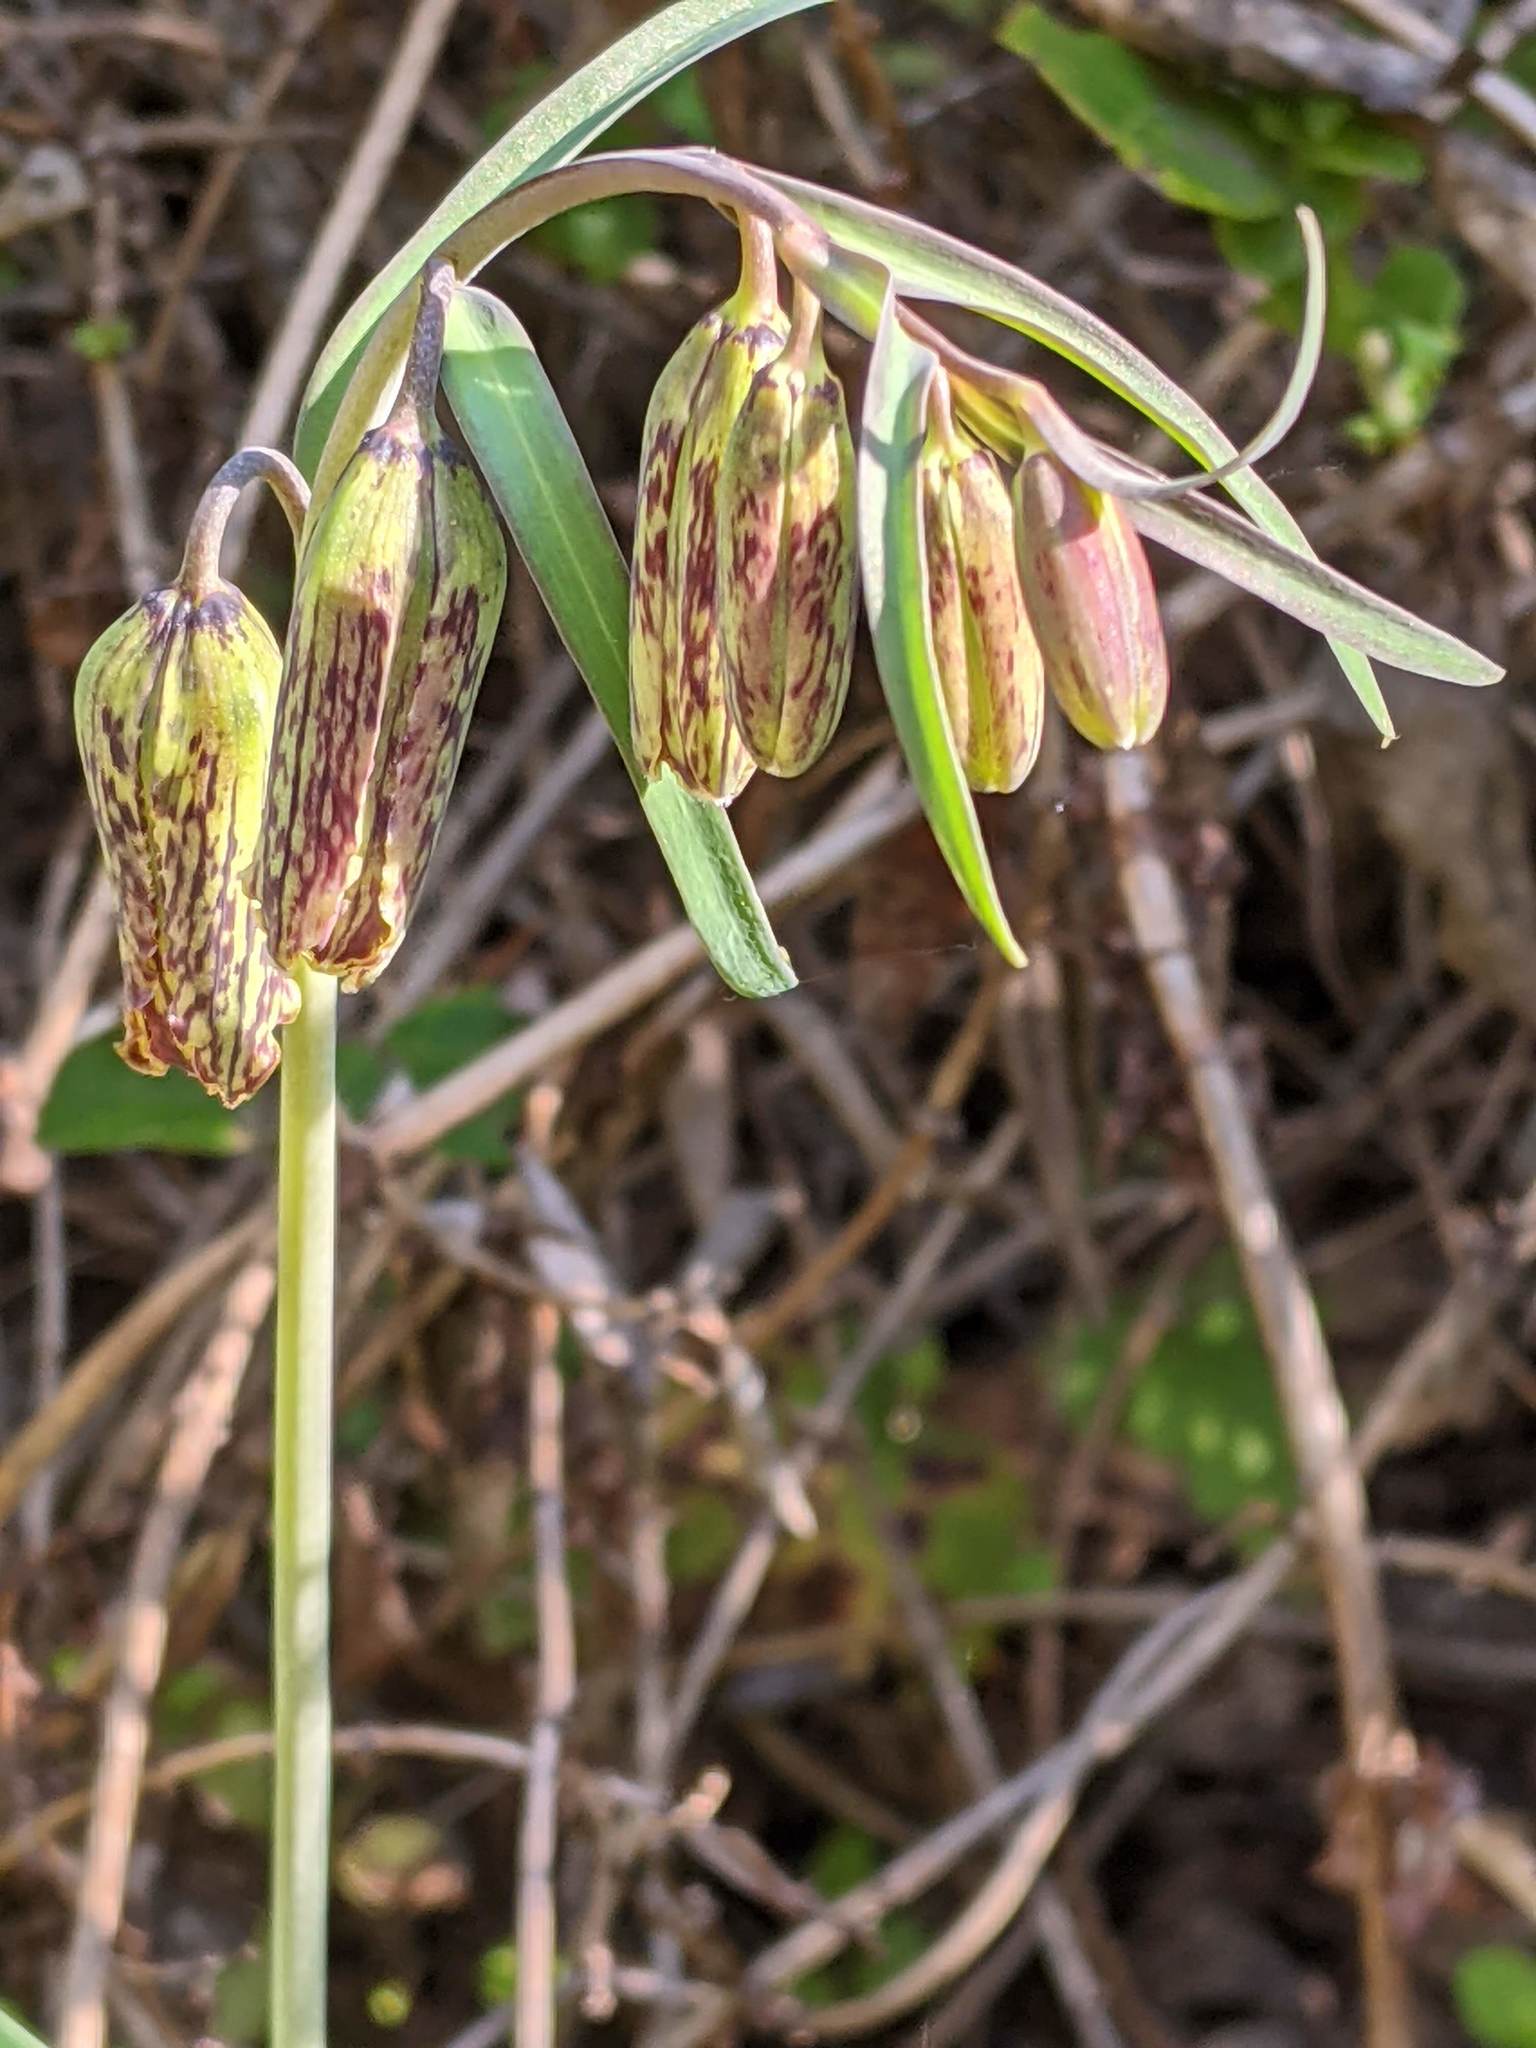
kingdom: Plantae
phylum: Tracheophyta
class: Liliopsida
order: Liliales
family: Liliaceae
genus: Fritillaria
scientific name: Fritillaria affinis
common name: Ojai fritillary
